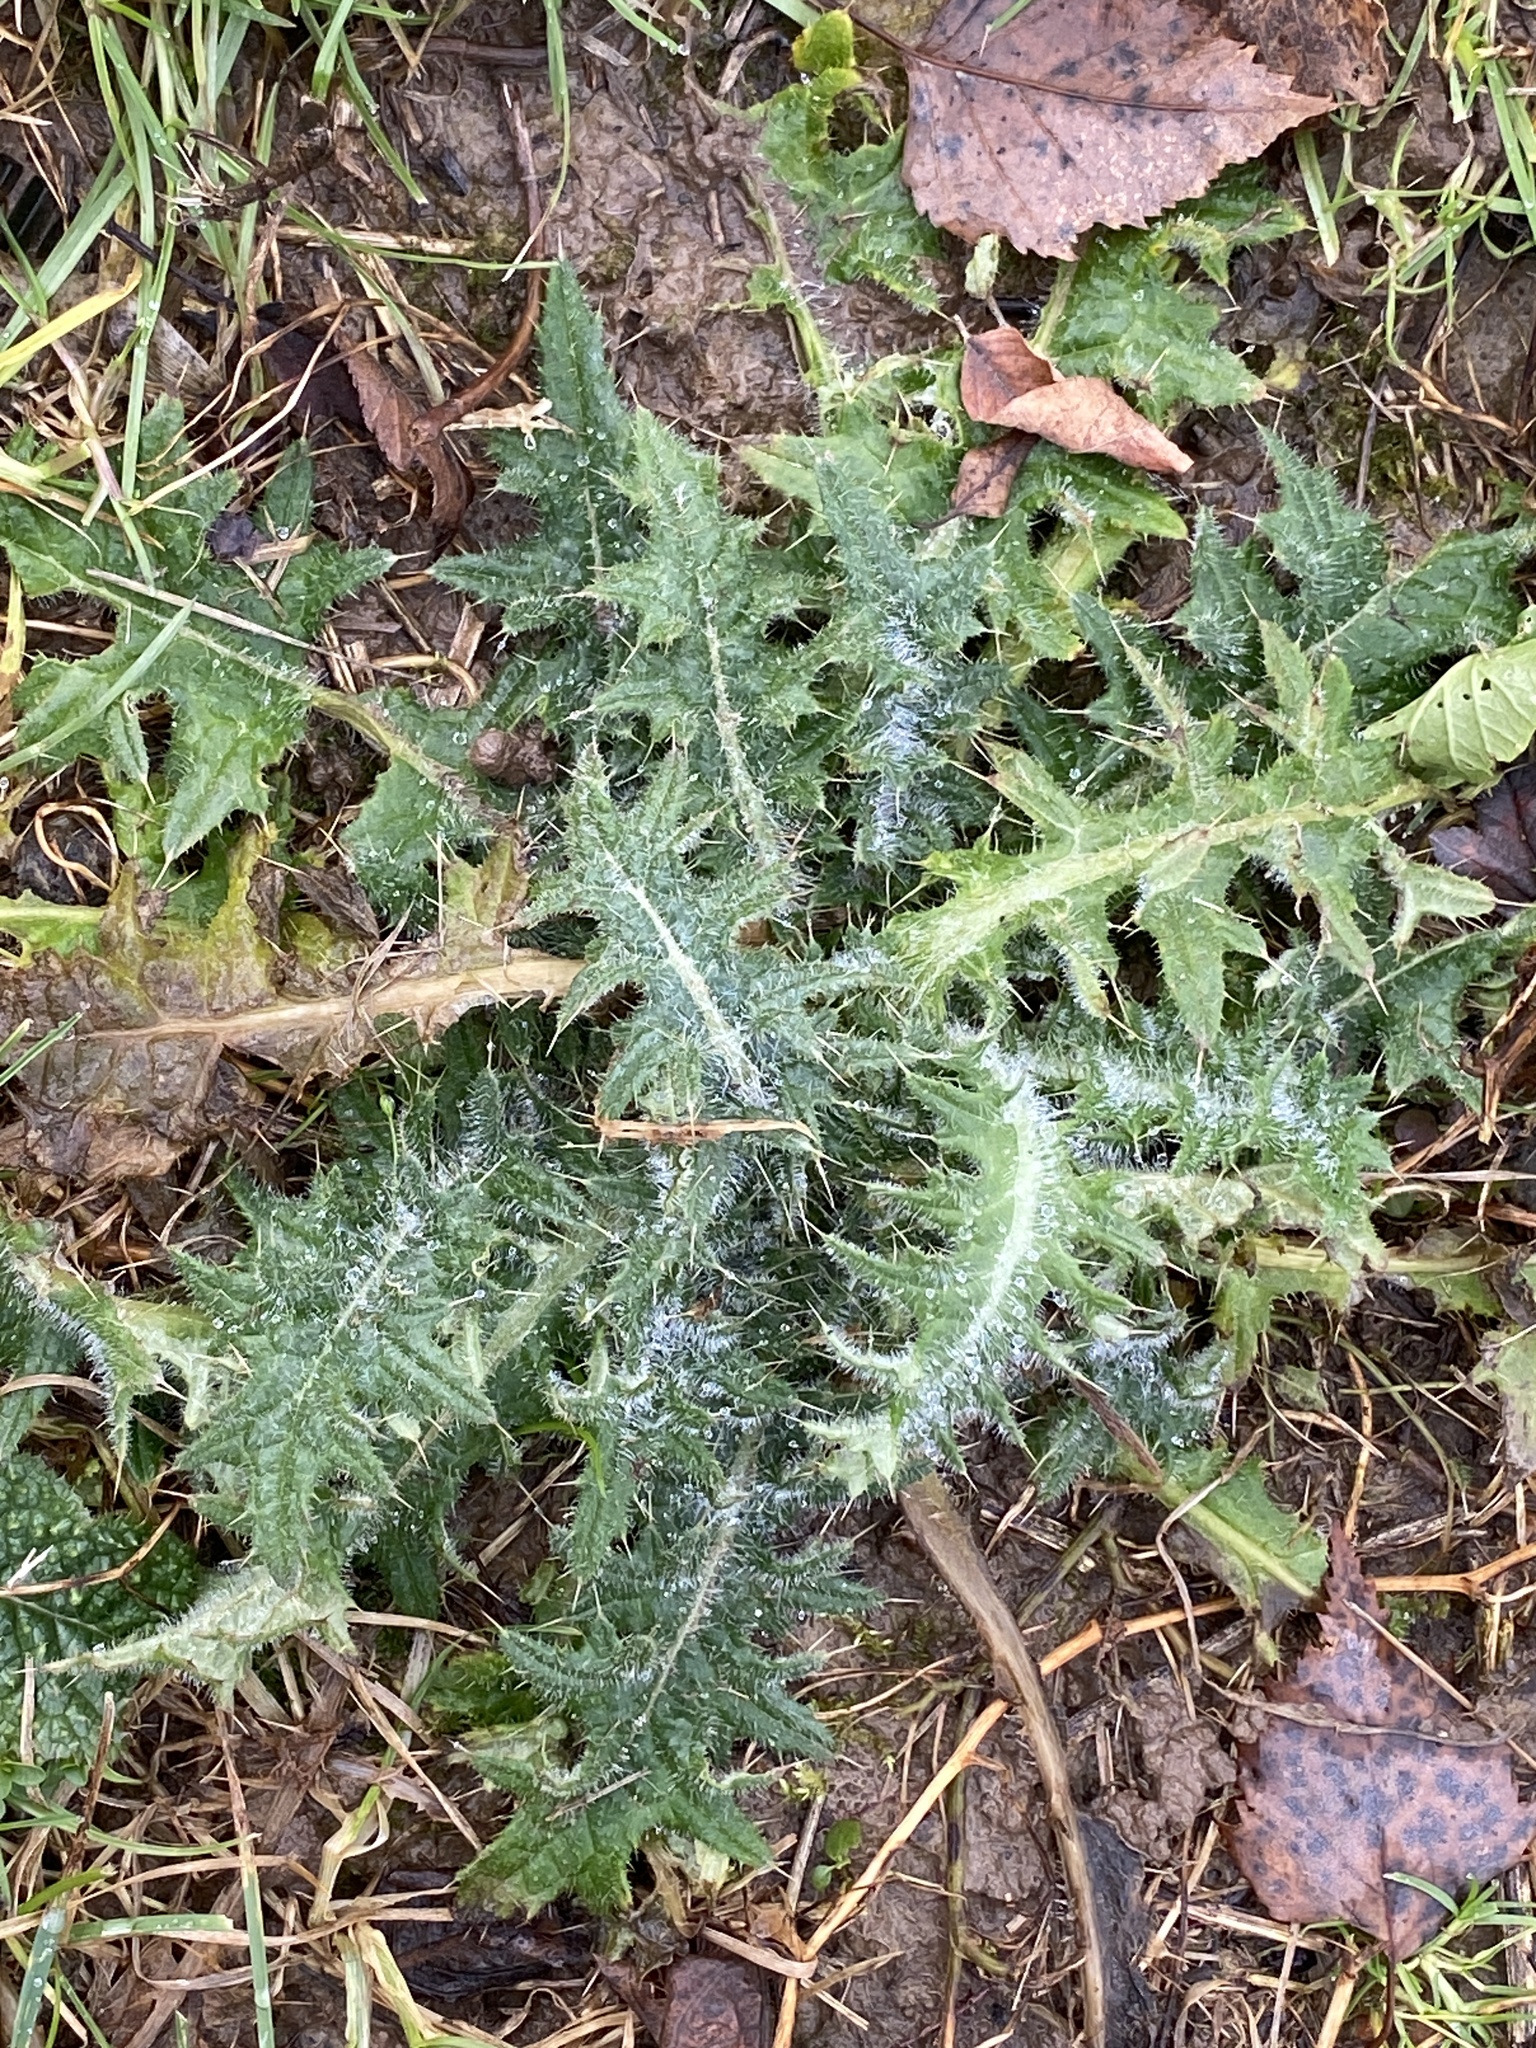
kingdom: Plantae
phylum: Tracheophyta
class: Magnoliopsida
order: Asterales
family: Asteraceae
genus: Cirsium
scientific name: Cirsium vulgare
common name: Bull thistle
